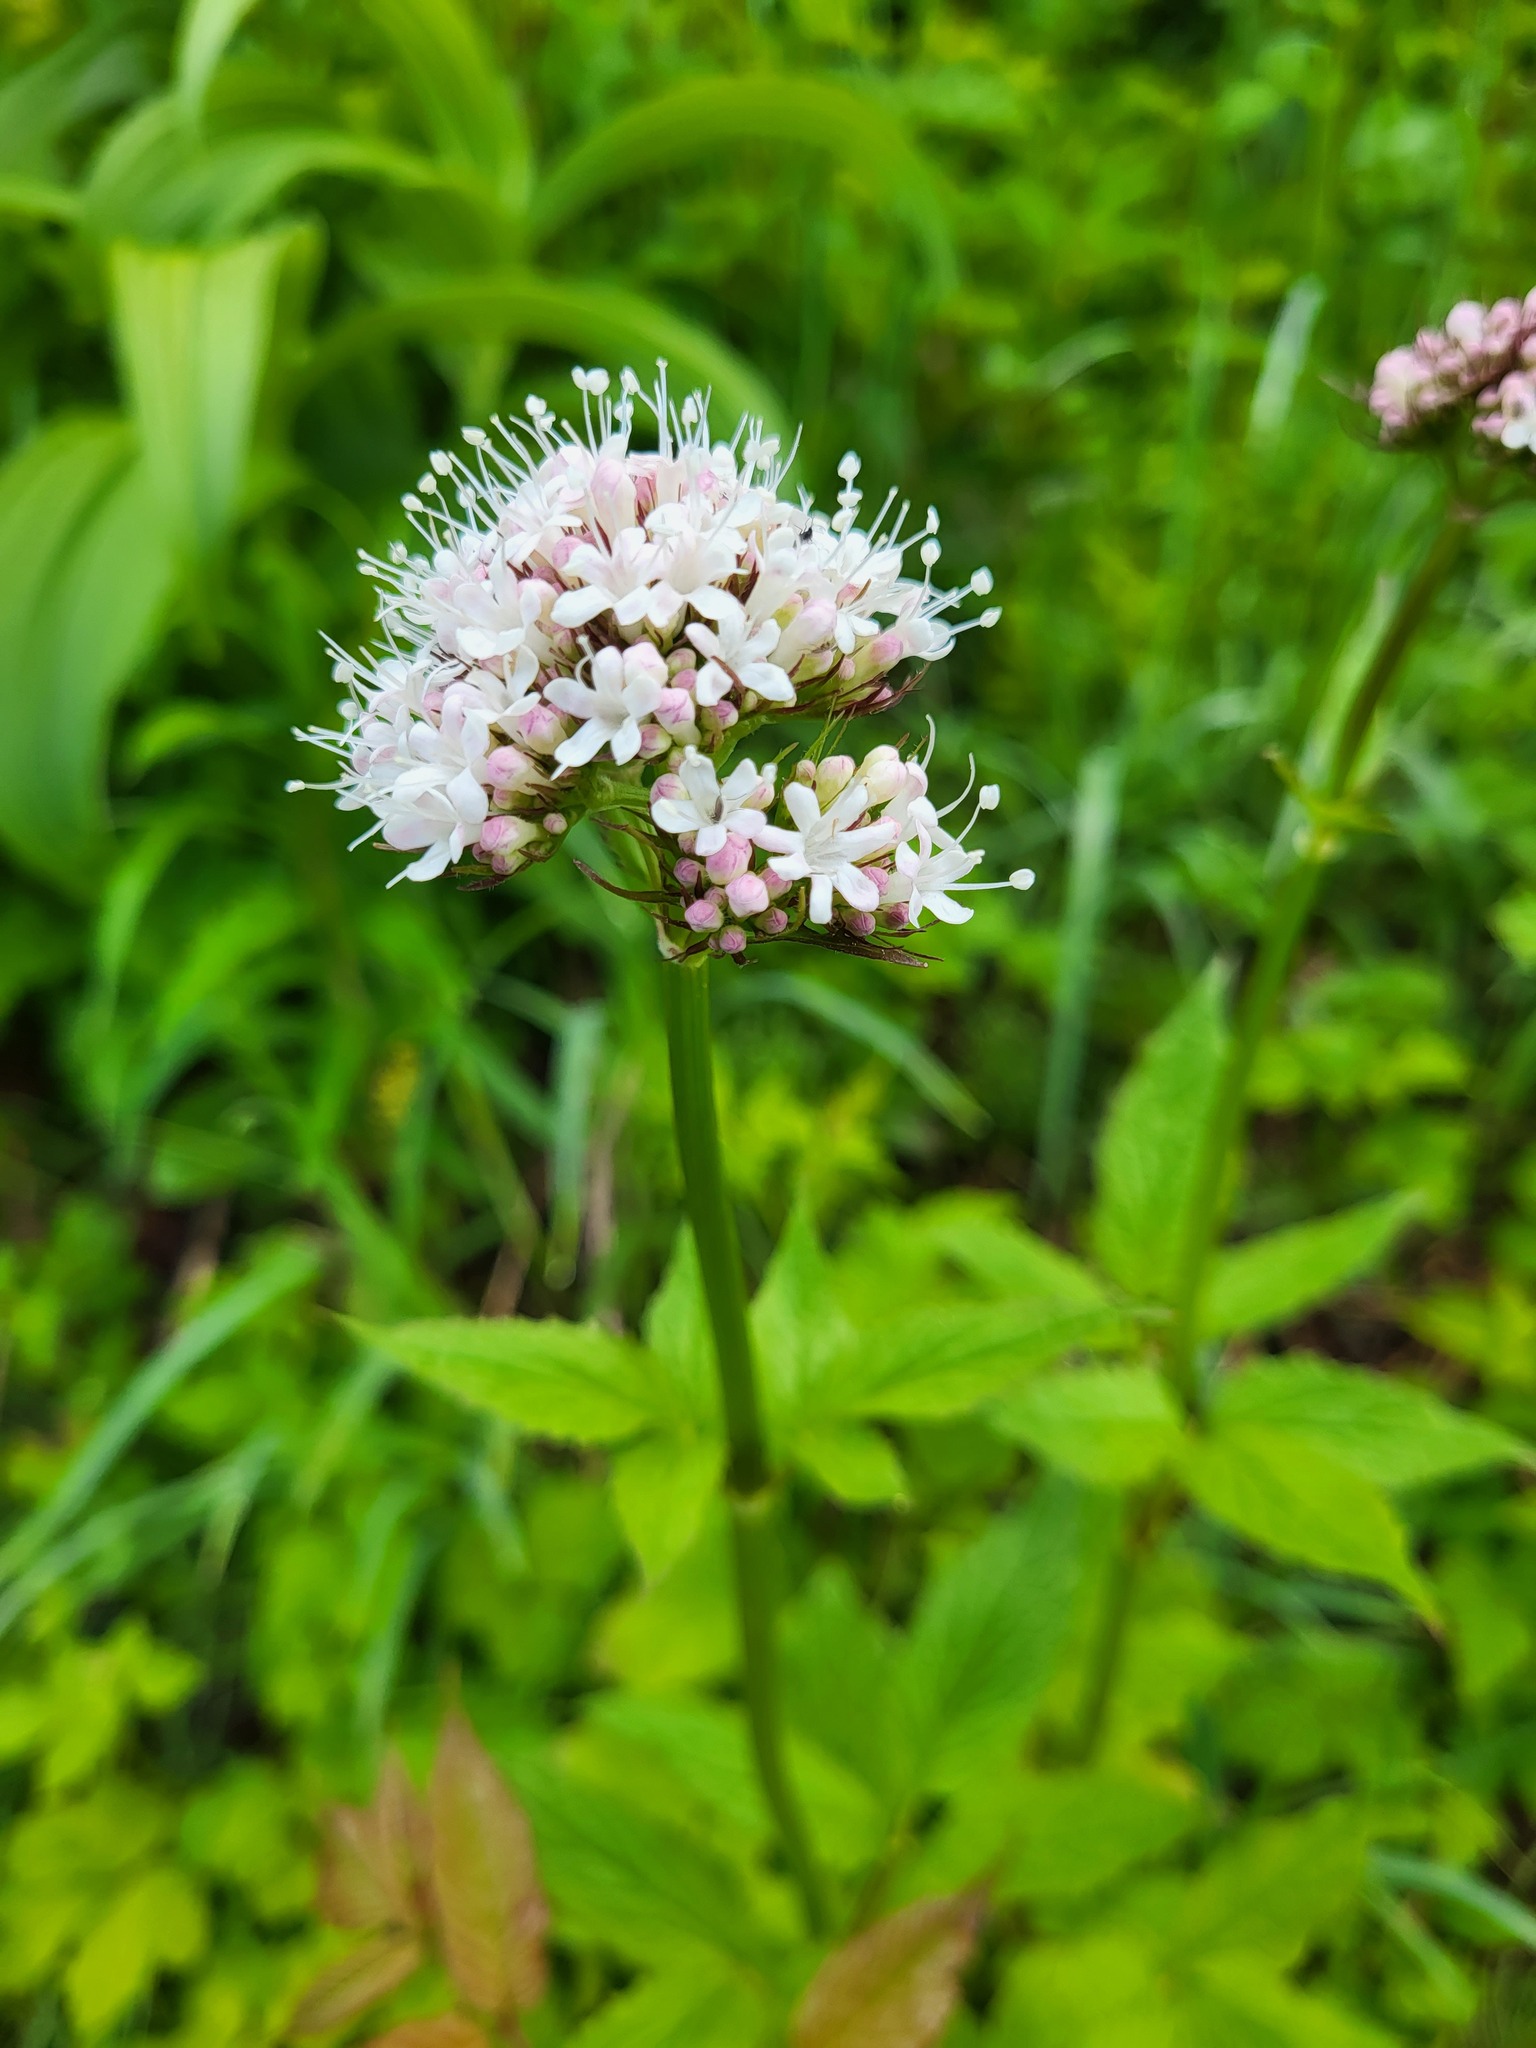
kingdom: Plantae
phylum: Tracheophyta
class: Magnoliopsida
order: Dipsacales
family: Caprifoliaceae
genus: Valeriana
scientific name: Valeriana sitchensis
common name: Pacific valerian
